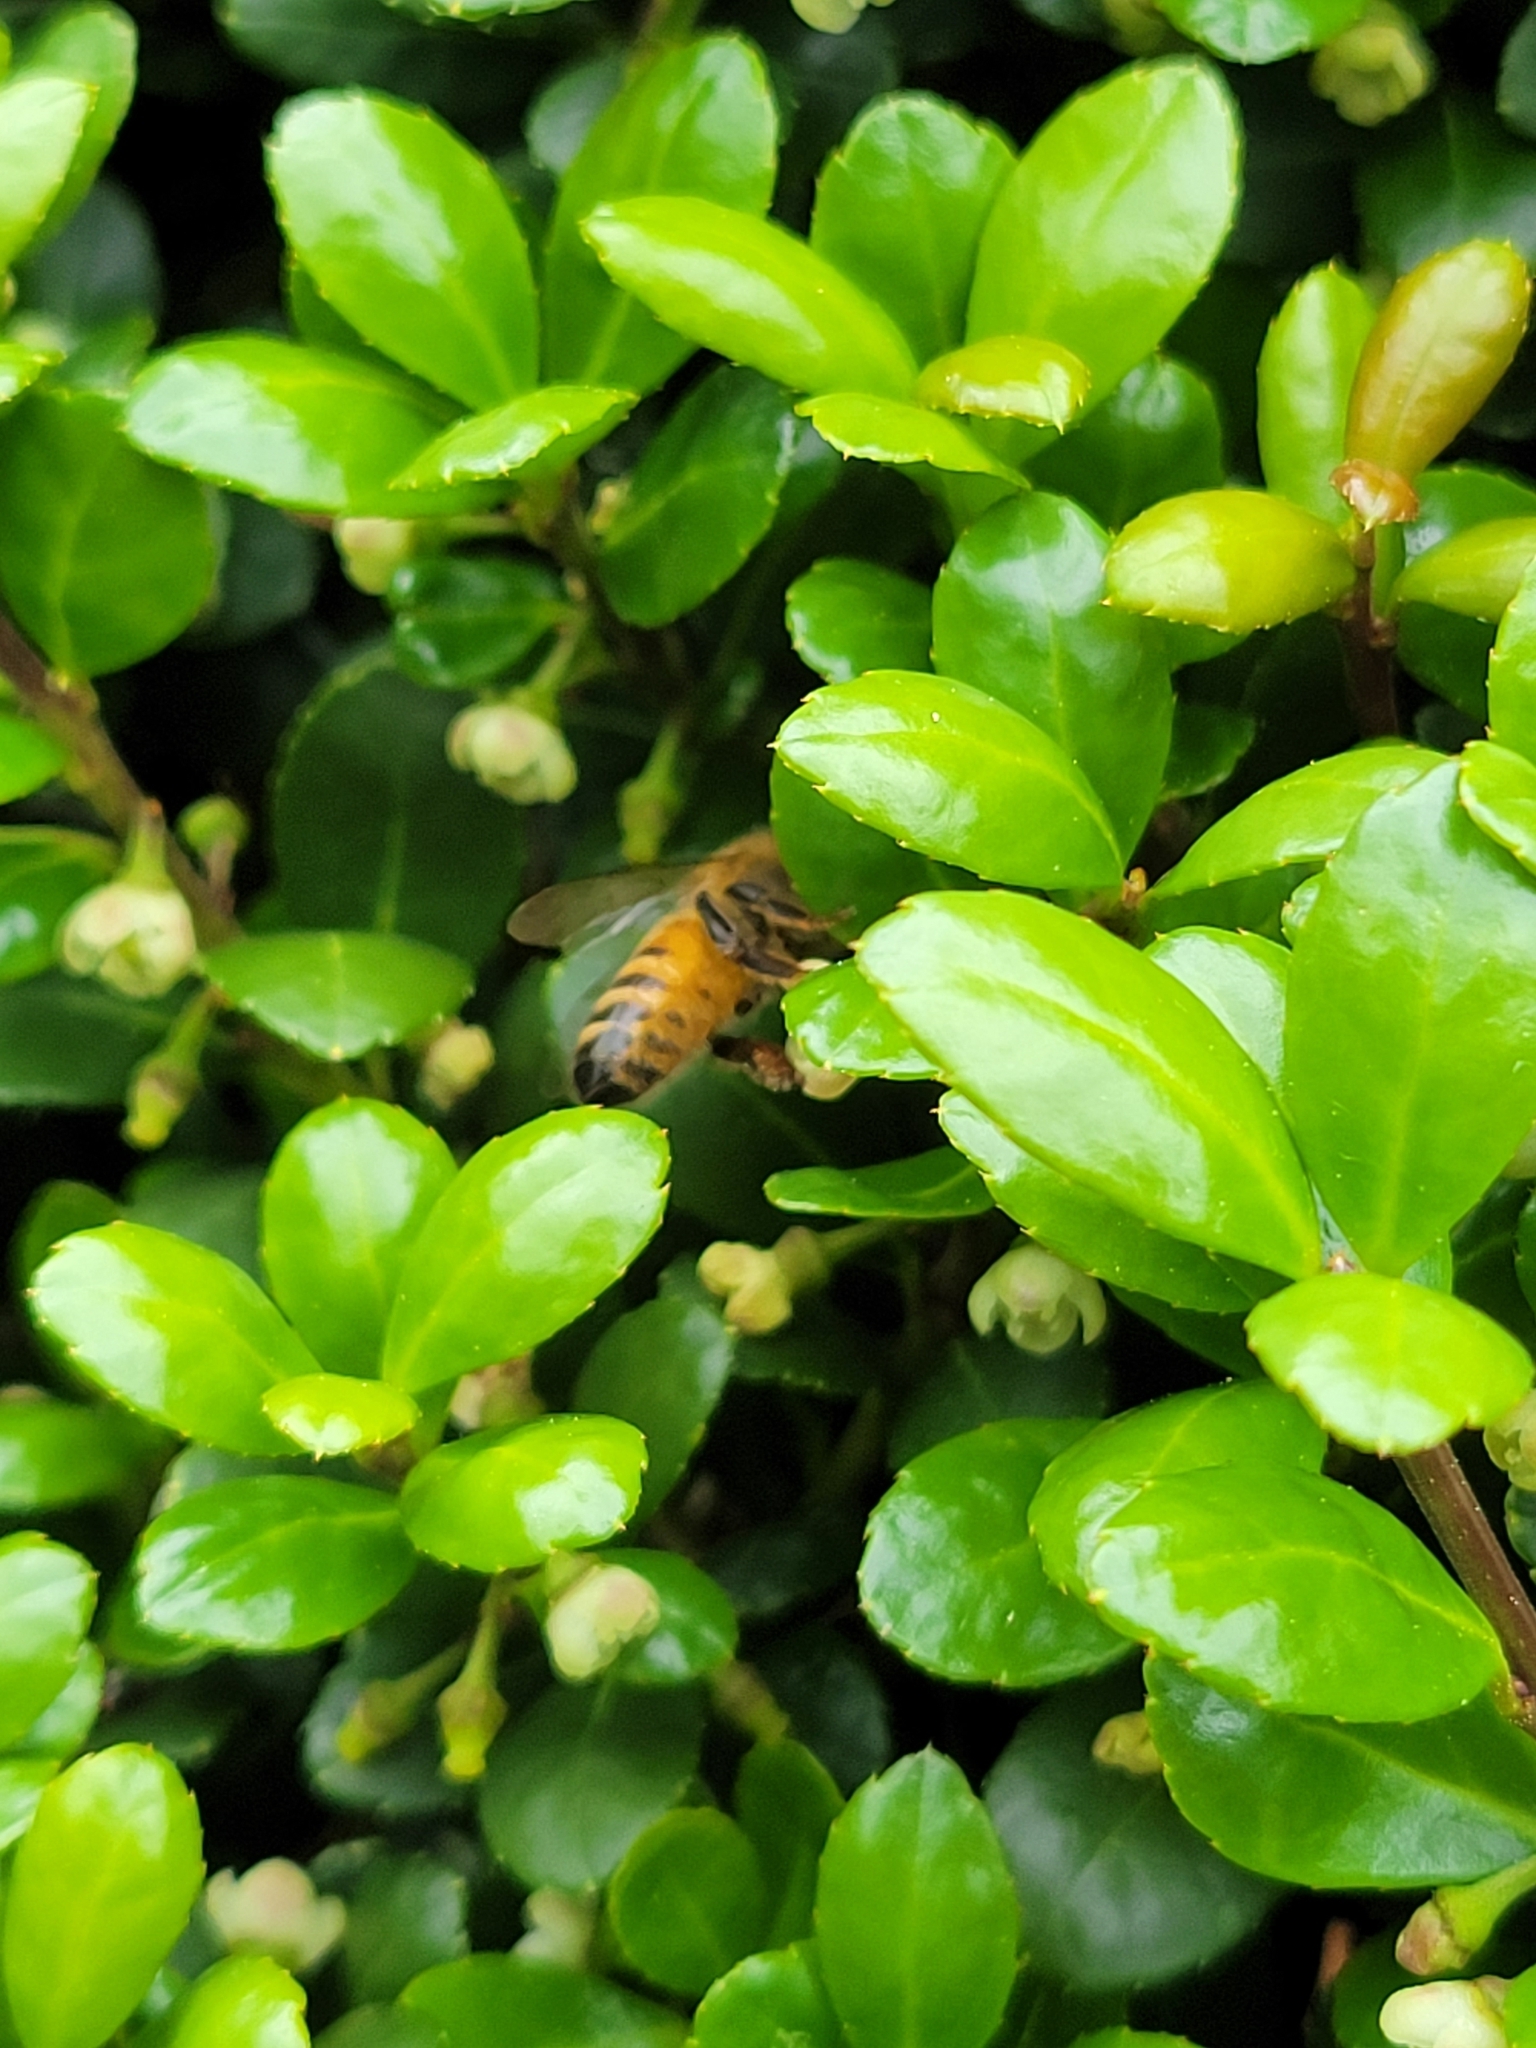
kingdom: Animalia
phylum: Arthropoda
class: Insecta
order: Hymenoptera
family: Apidae
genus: Apis
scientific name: Apis mellifera
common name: Honey bee
